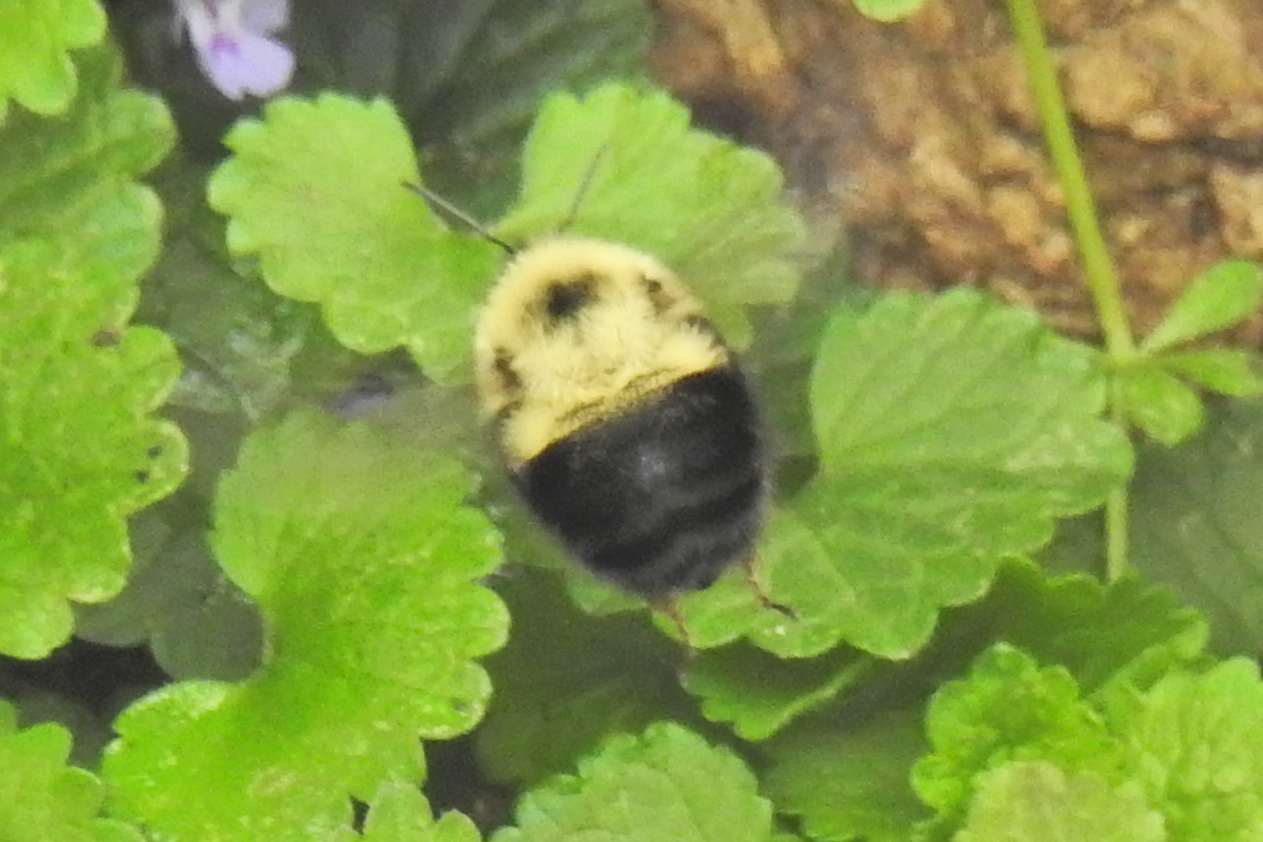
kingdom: Animalia
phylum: Arthropoda
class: Insecta
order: Hymenoptera
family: Apidae
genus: Bombus
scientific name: Bombus bimaculatus
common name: Two-spotted bumble bee
